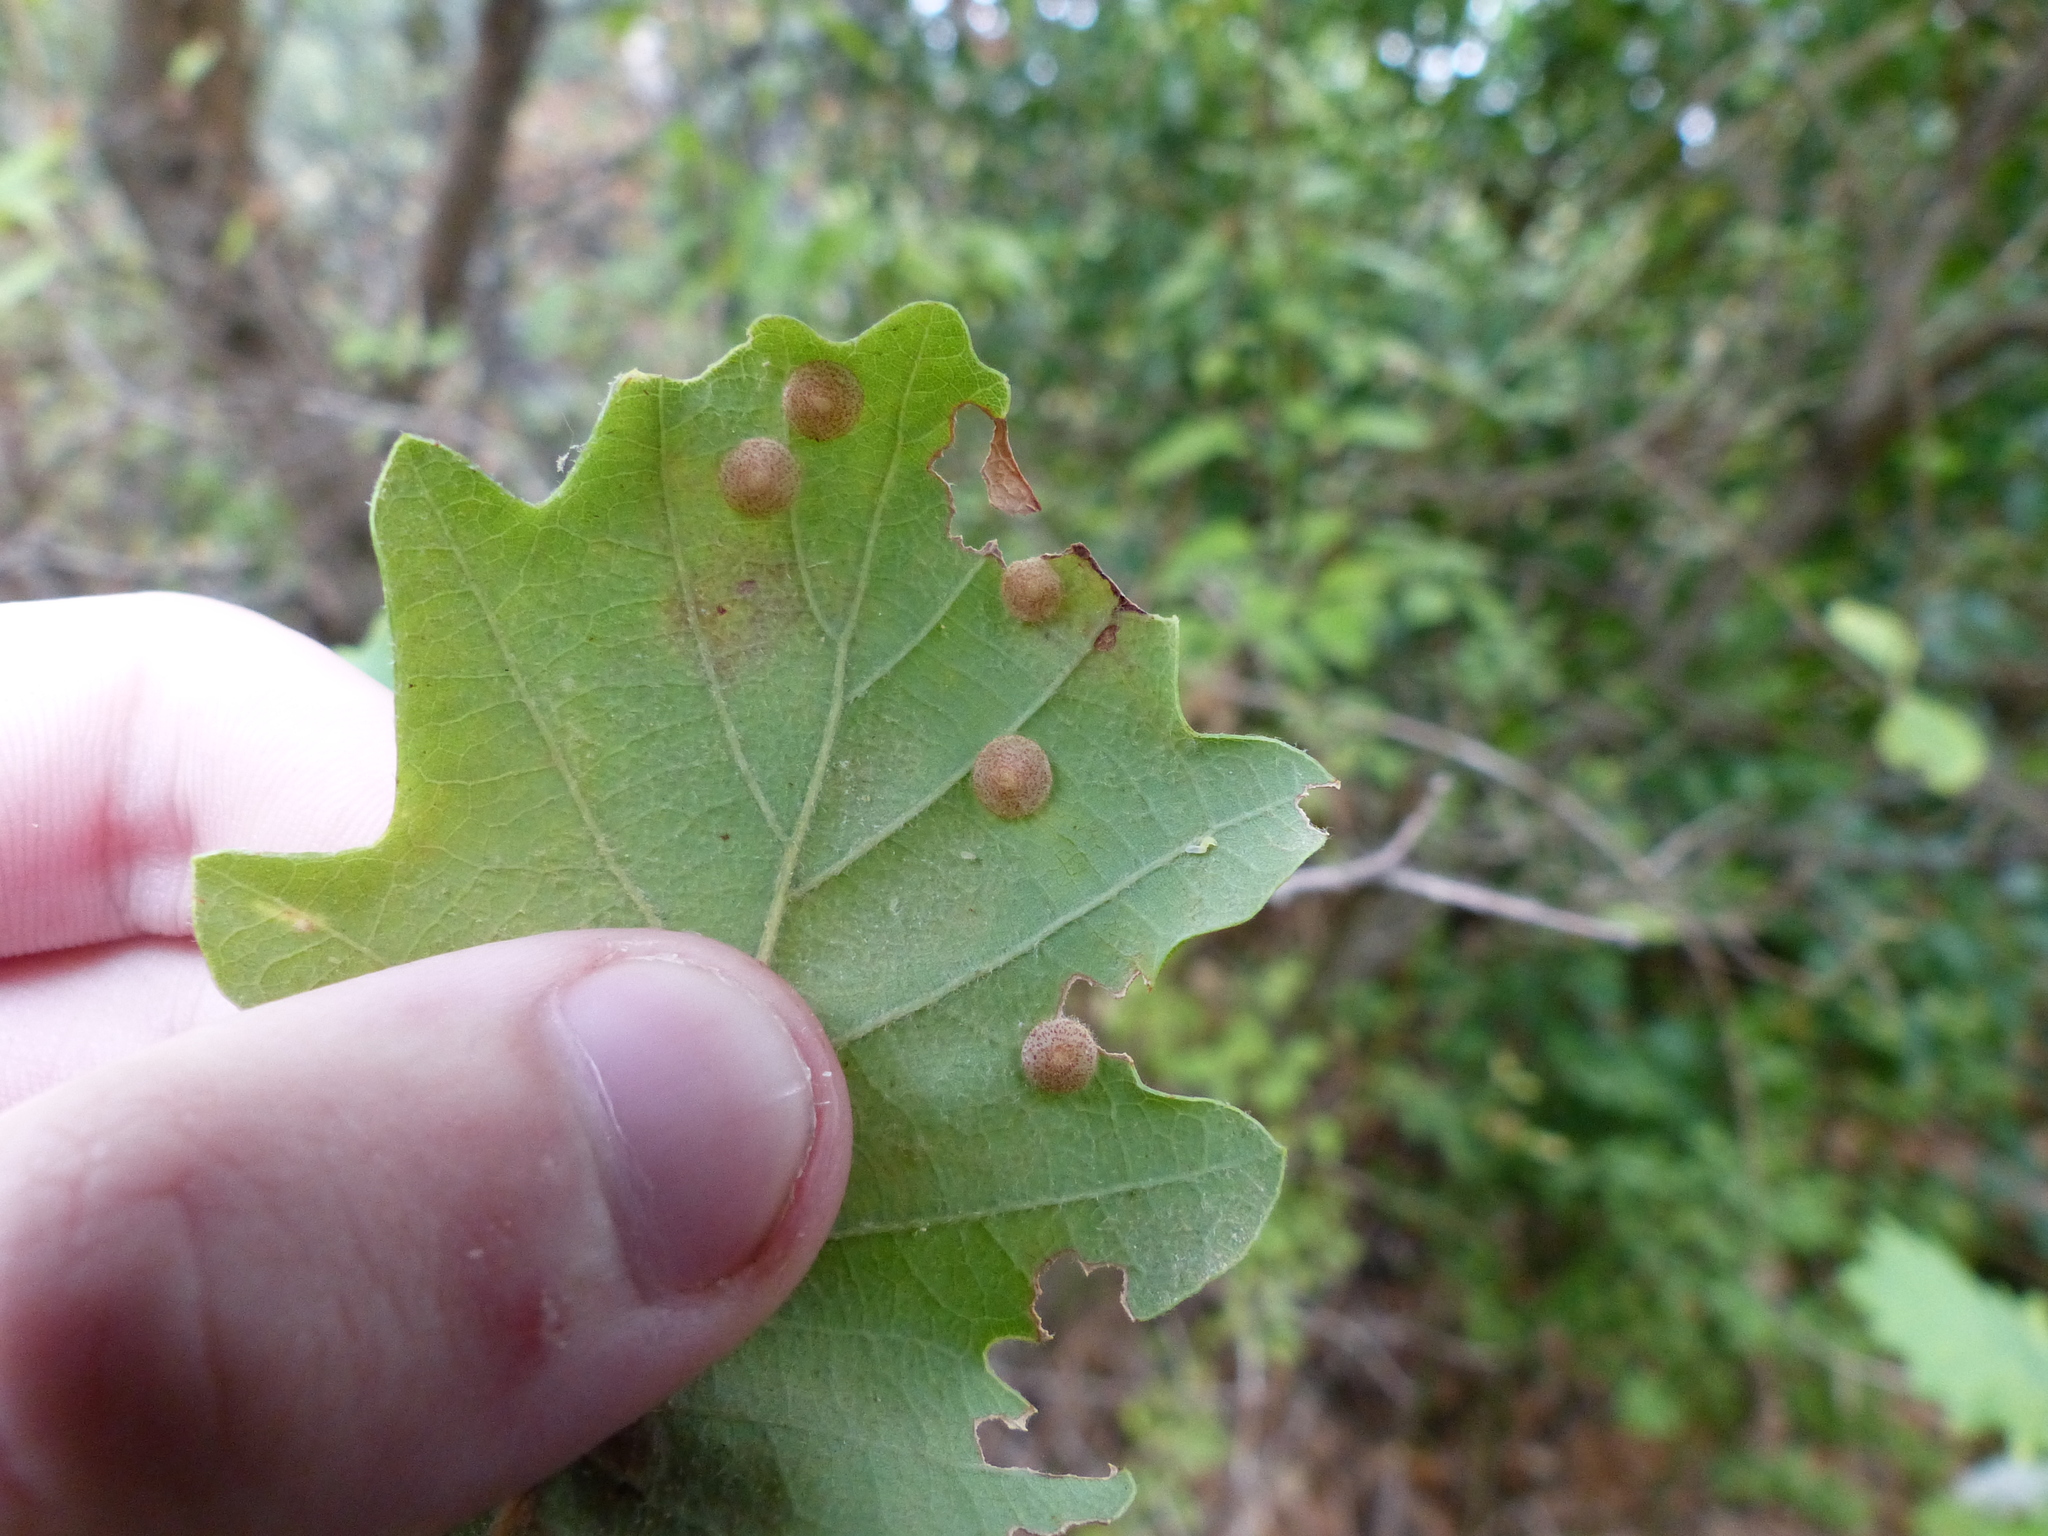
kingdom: Animalia
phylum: Arthropoda
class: Insecta
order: Hymenoptera
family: Cynipidae
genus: Neuroterus
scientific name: Neuroterus quercusbaccarum
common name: Common spangle gall
